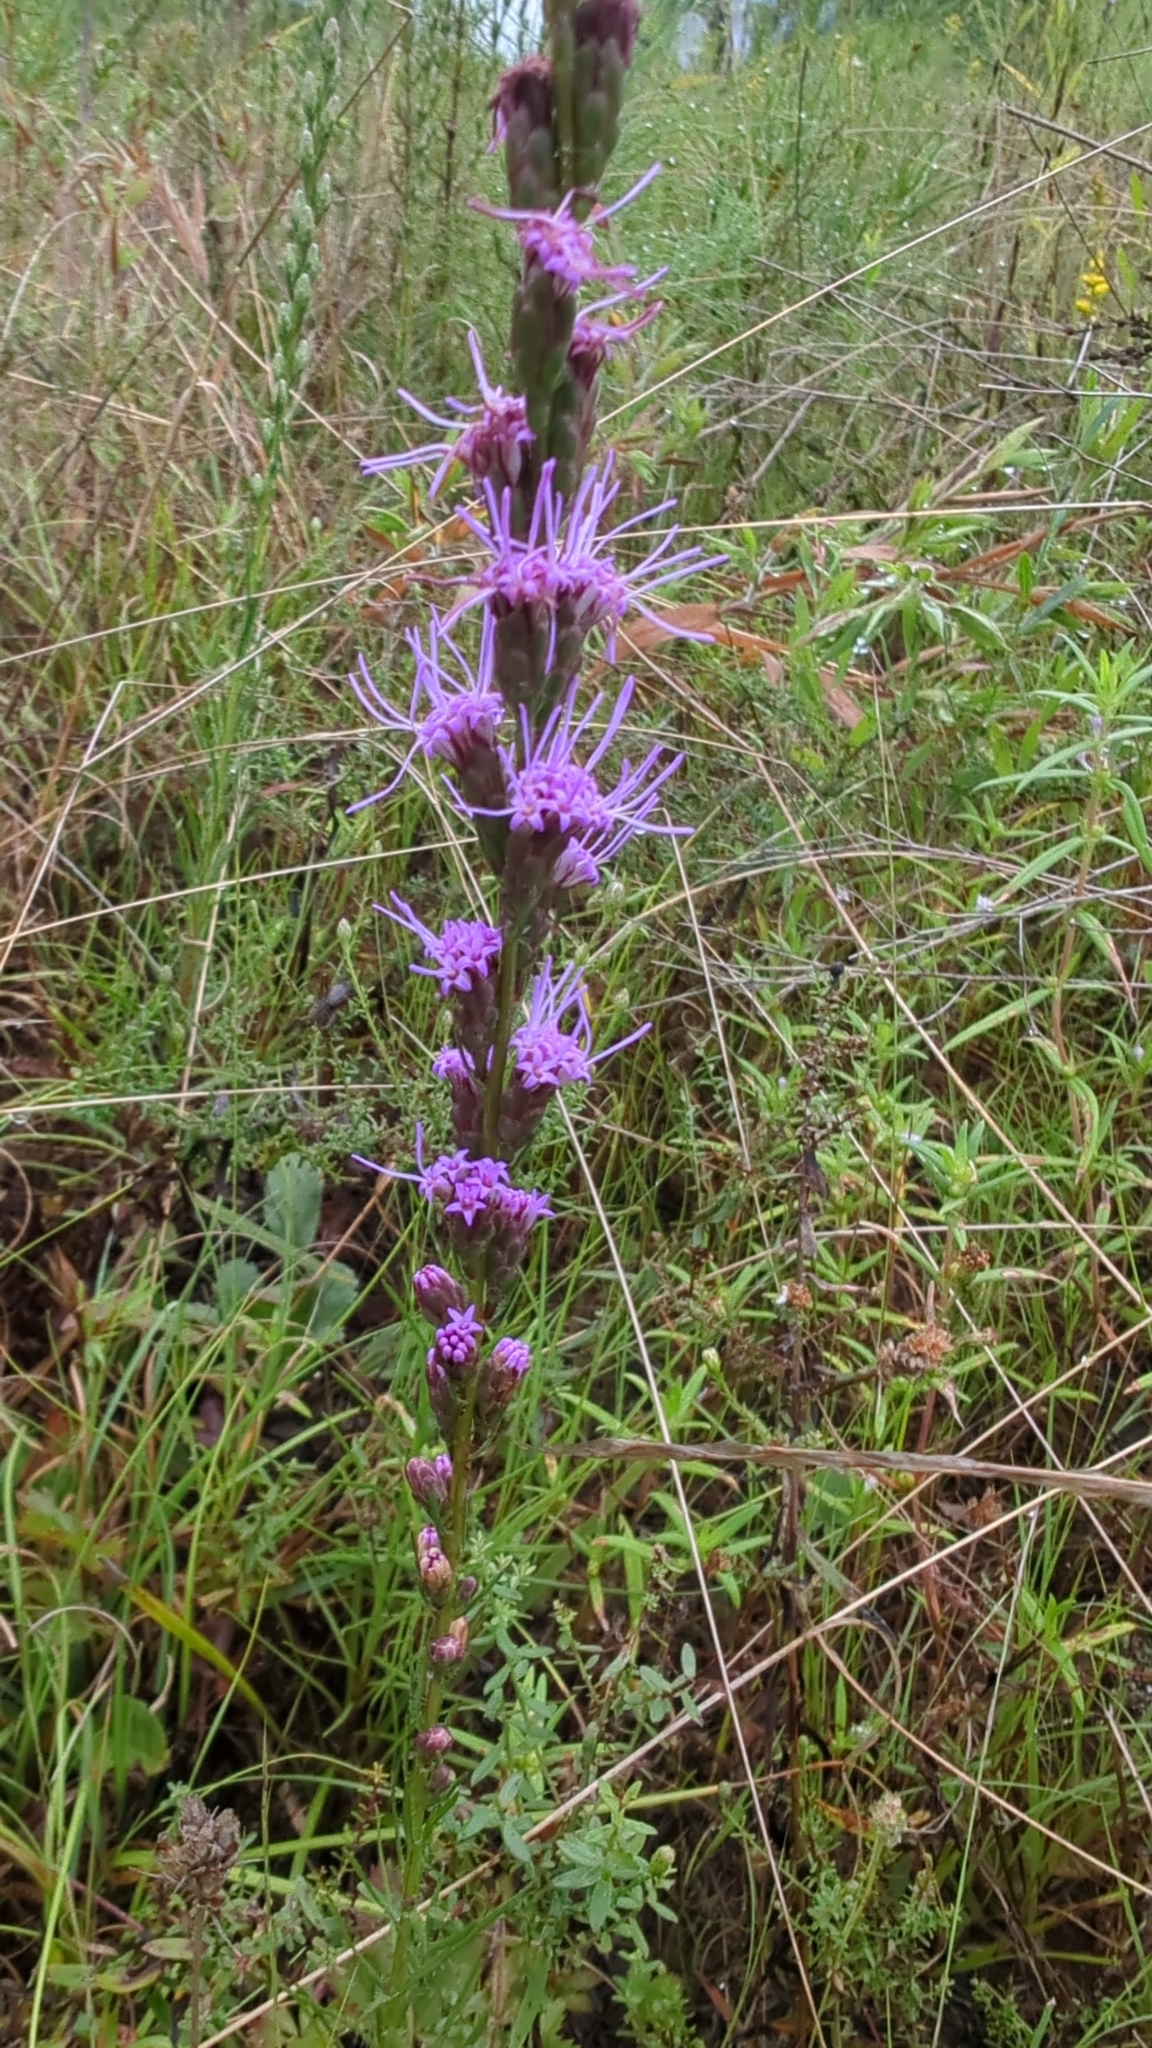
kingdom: Plantae
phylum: Tracheophyta
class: Magnoliopsida
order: Asterales
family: Asteraceae
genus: Liatris
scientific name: Liatris pilosa
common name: Grass-leaf gayfeather
